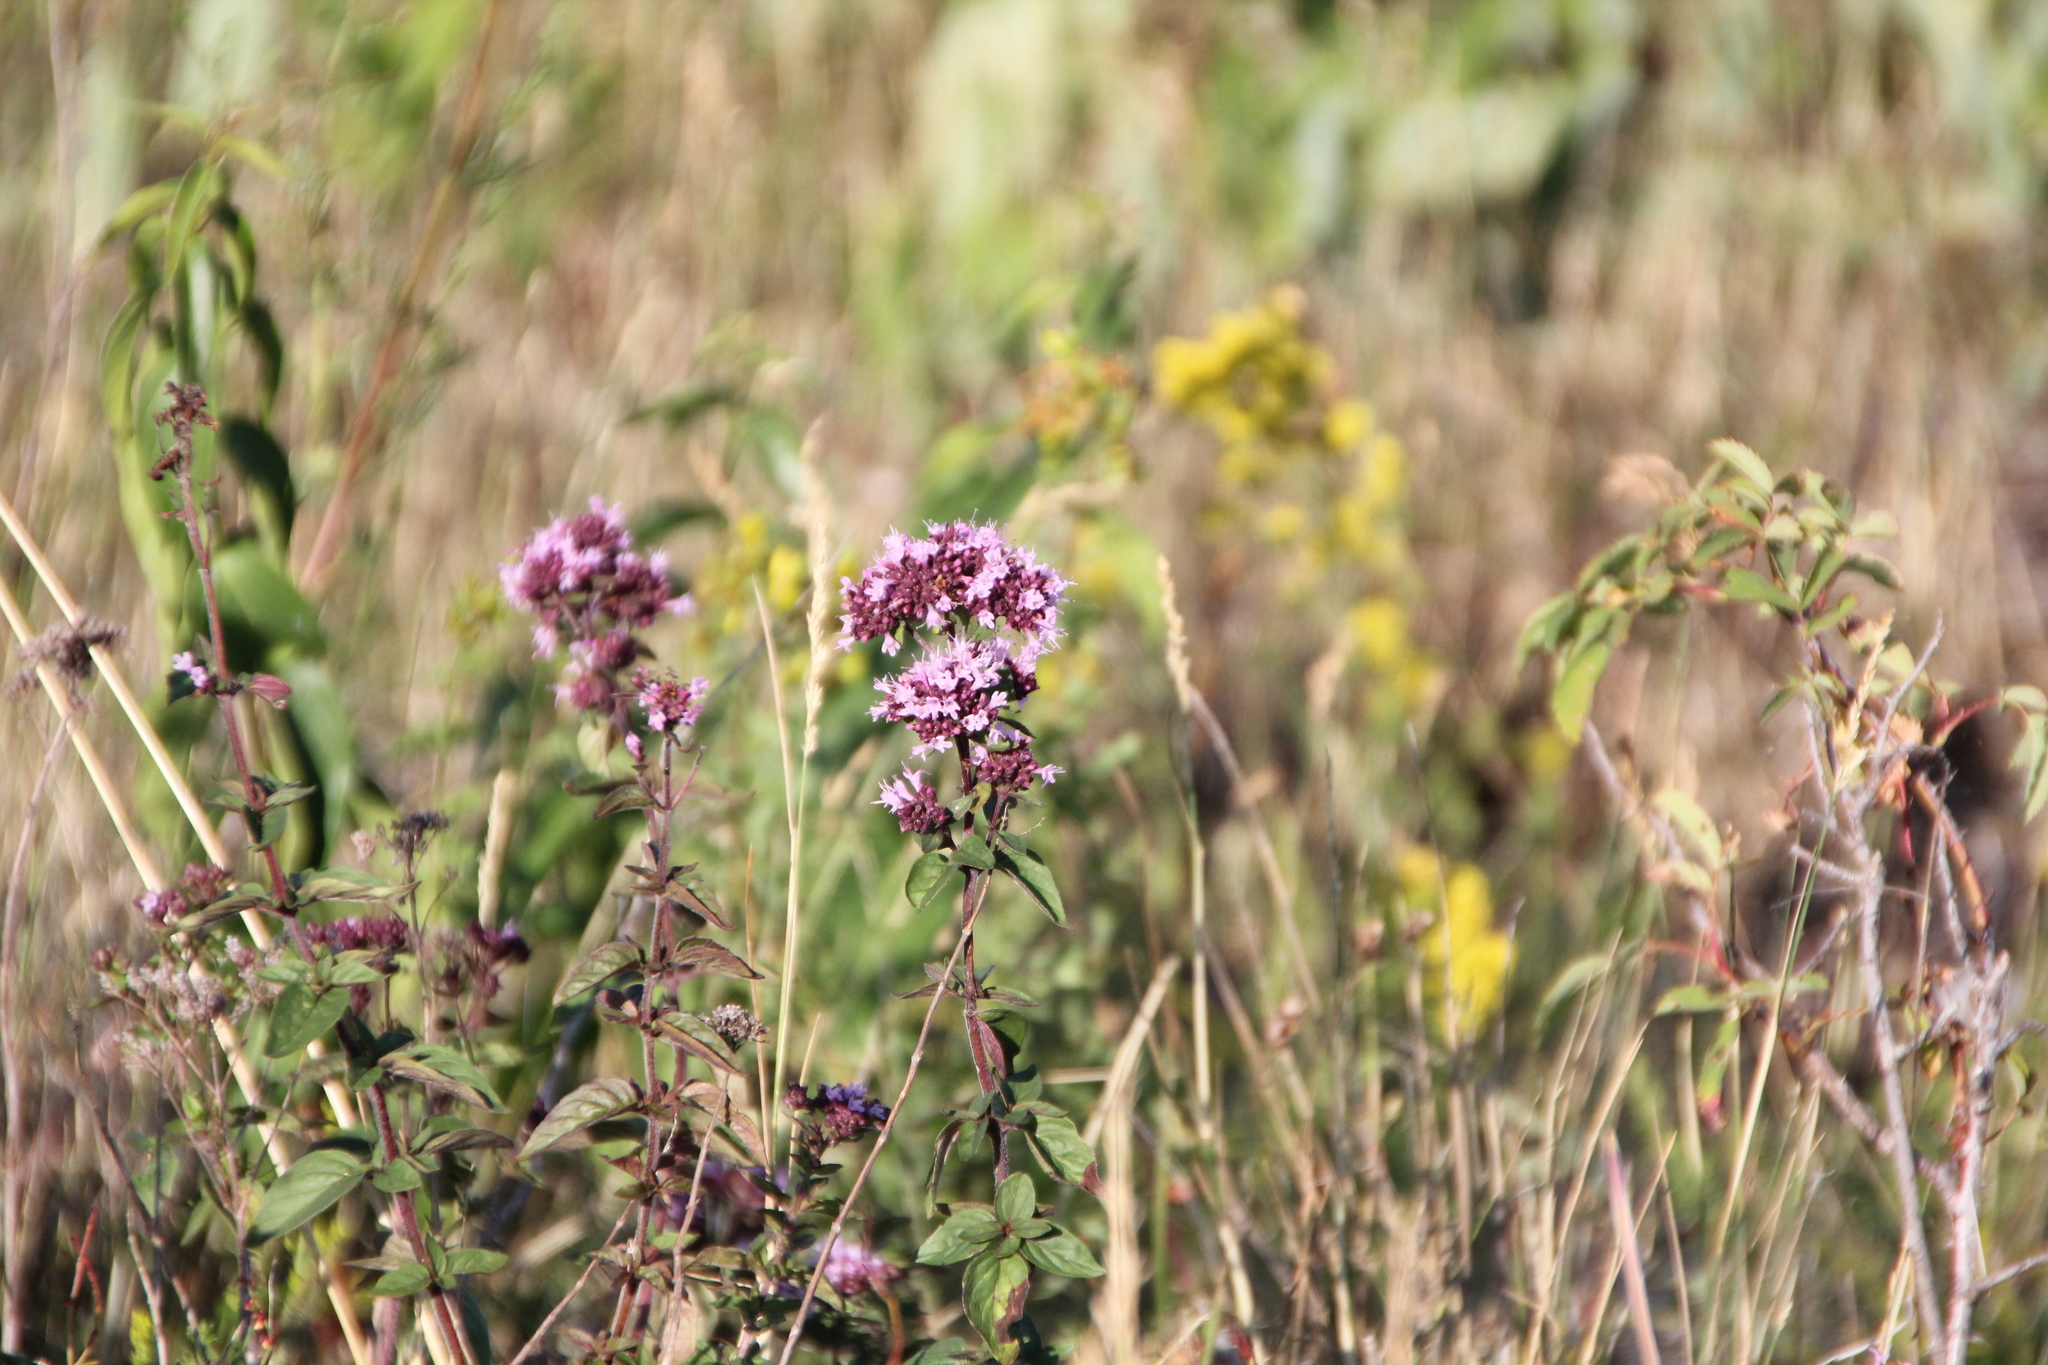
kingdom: Plantae
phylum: Tracheophyta
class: Magnoliopsida
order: Lamiales
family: Lamiaceae
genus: Origanum
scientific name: Origanum vulgare
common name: Wild marjoram
